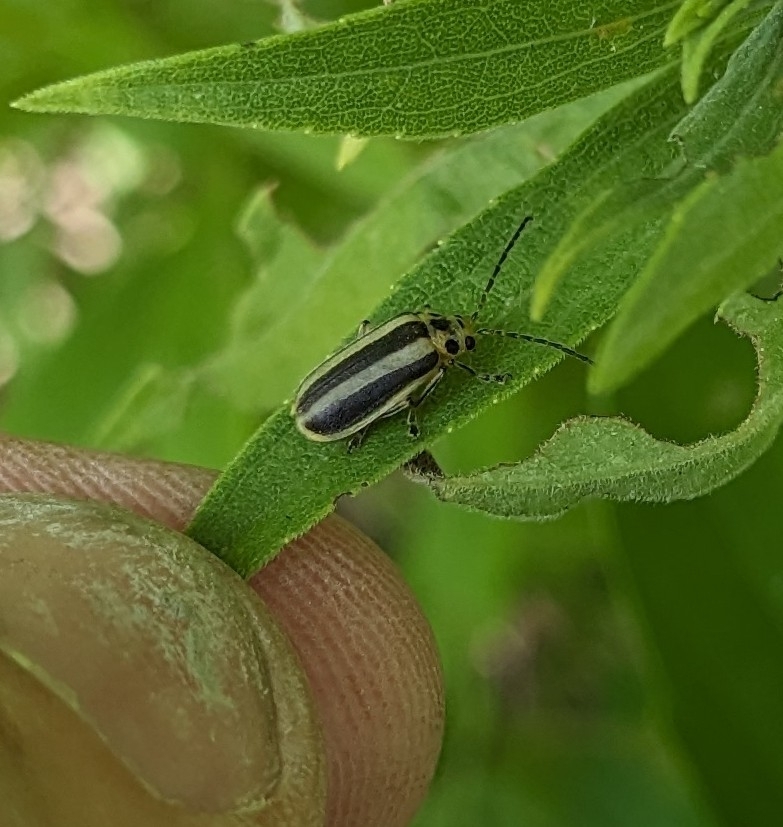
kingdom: Animalia
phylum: Arthropoda
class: Insecta
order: Coleoptera
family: Chrysomelidae
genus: Trirhabda
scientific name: Trirhabda canadensis
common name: Goldenrod leaf beetle
